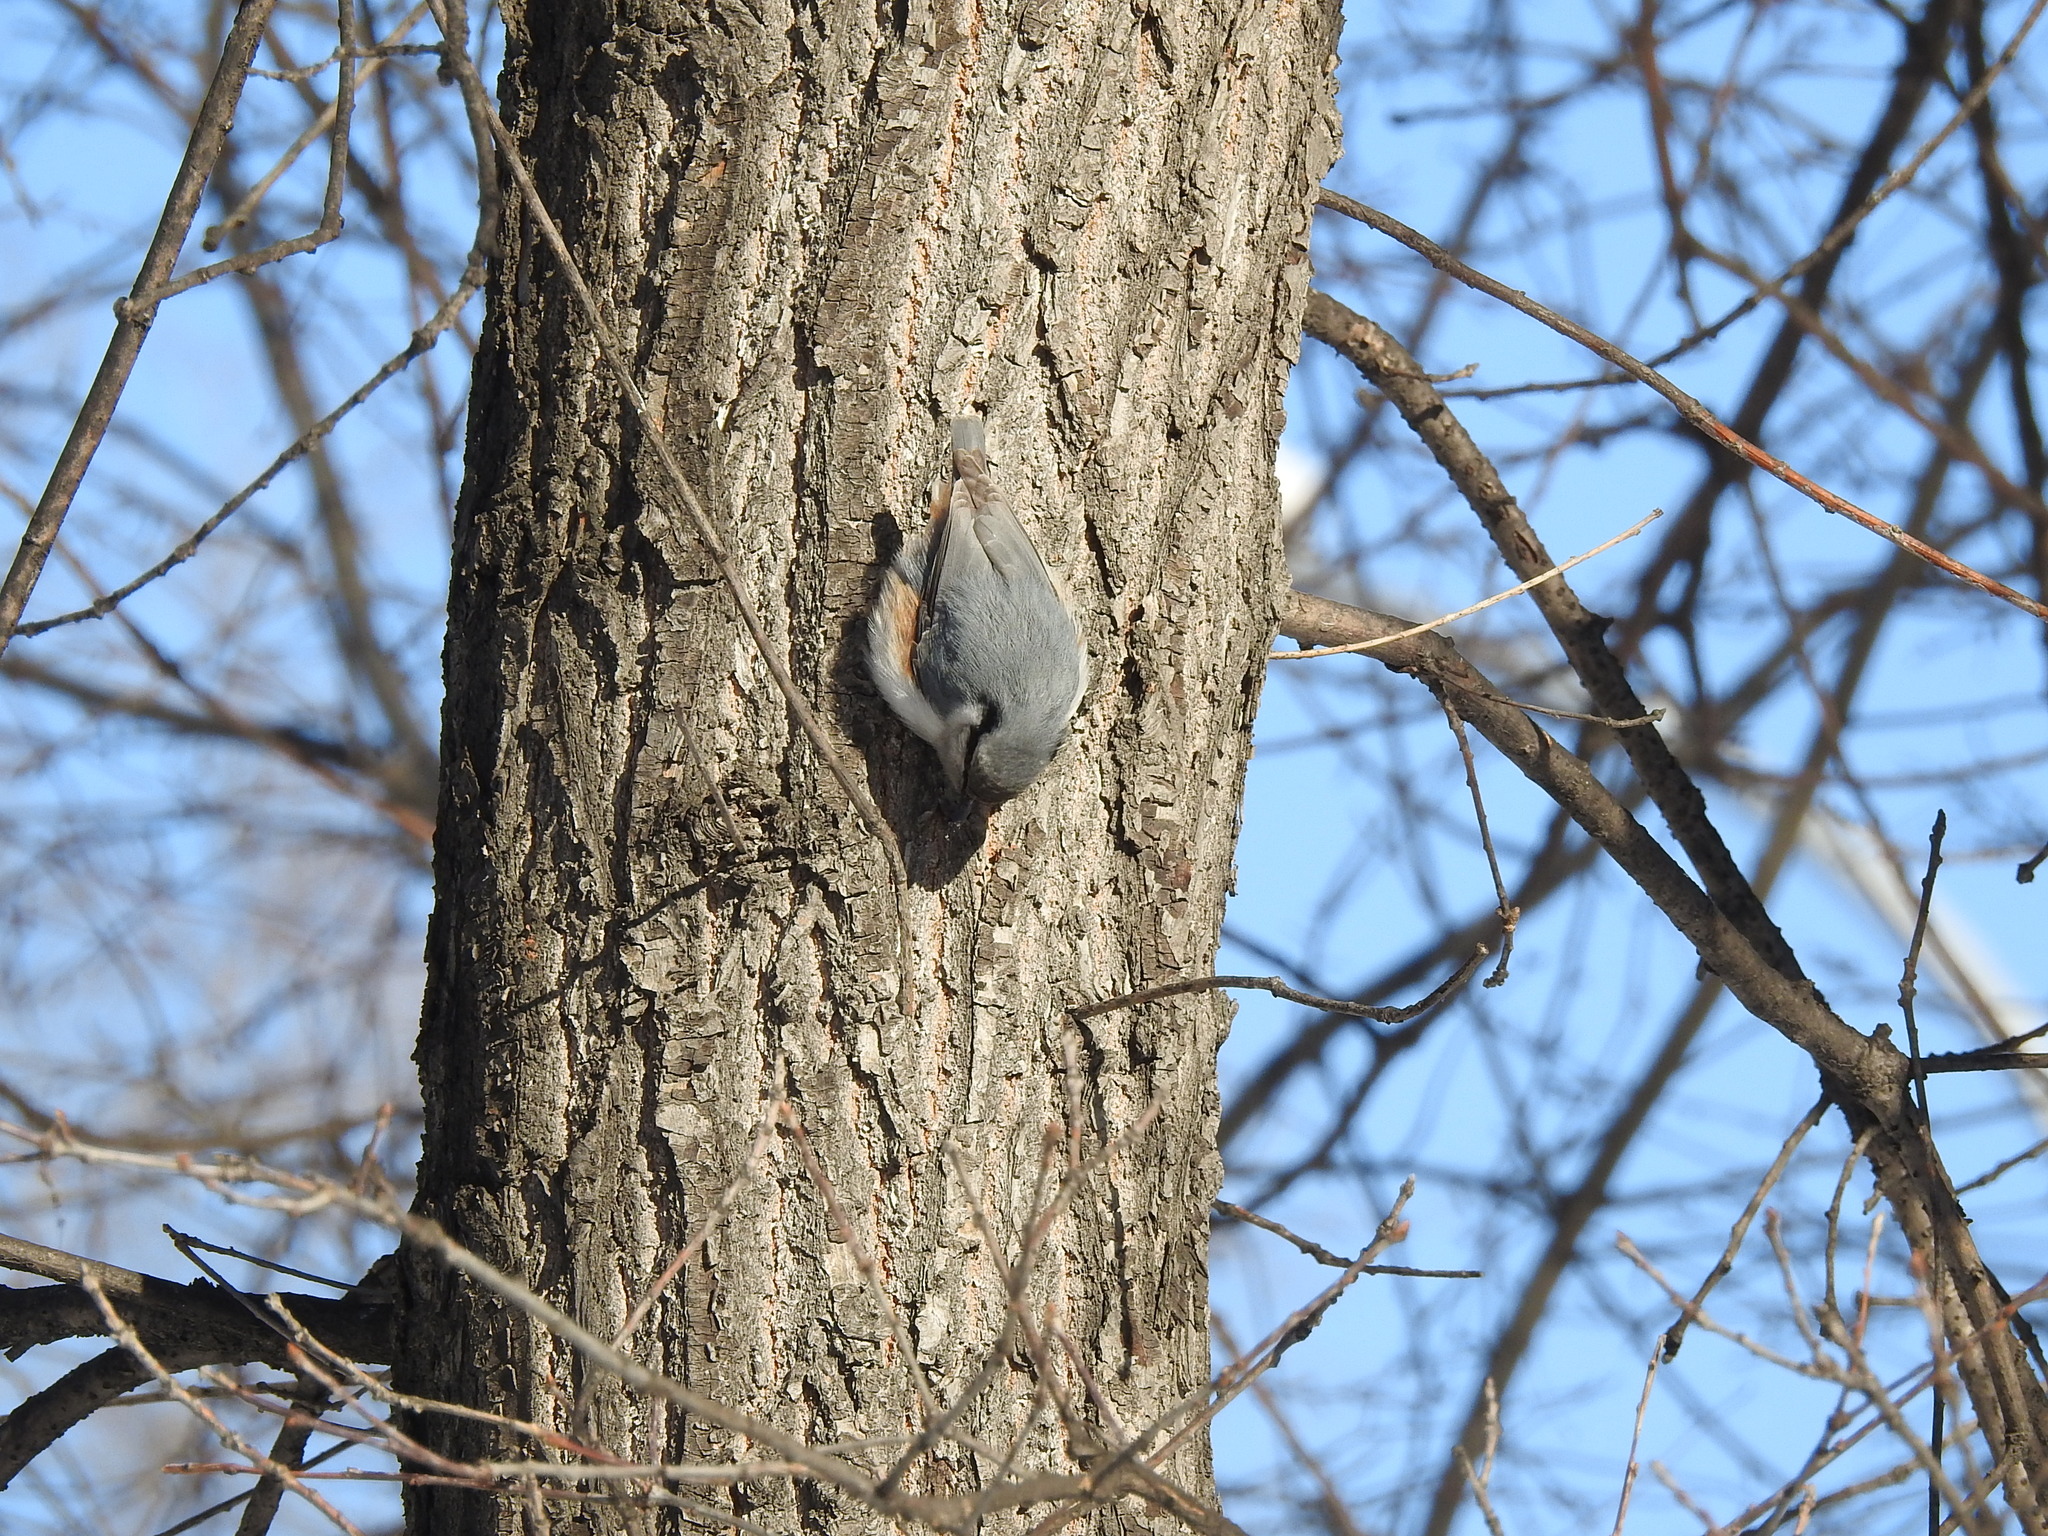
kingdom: Animalia
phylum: Chordata
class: Aves
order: Passeriformes
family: Sittidae
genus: Sitta
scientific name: Sitta europaea
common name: Eurasian nuthatch
